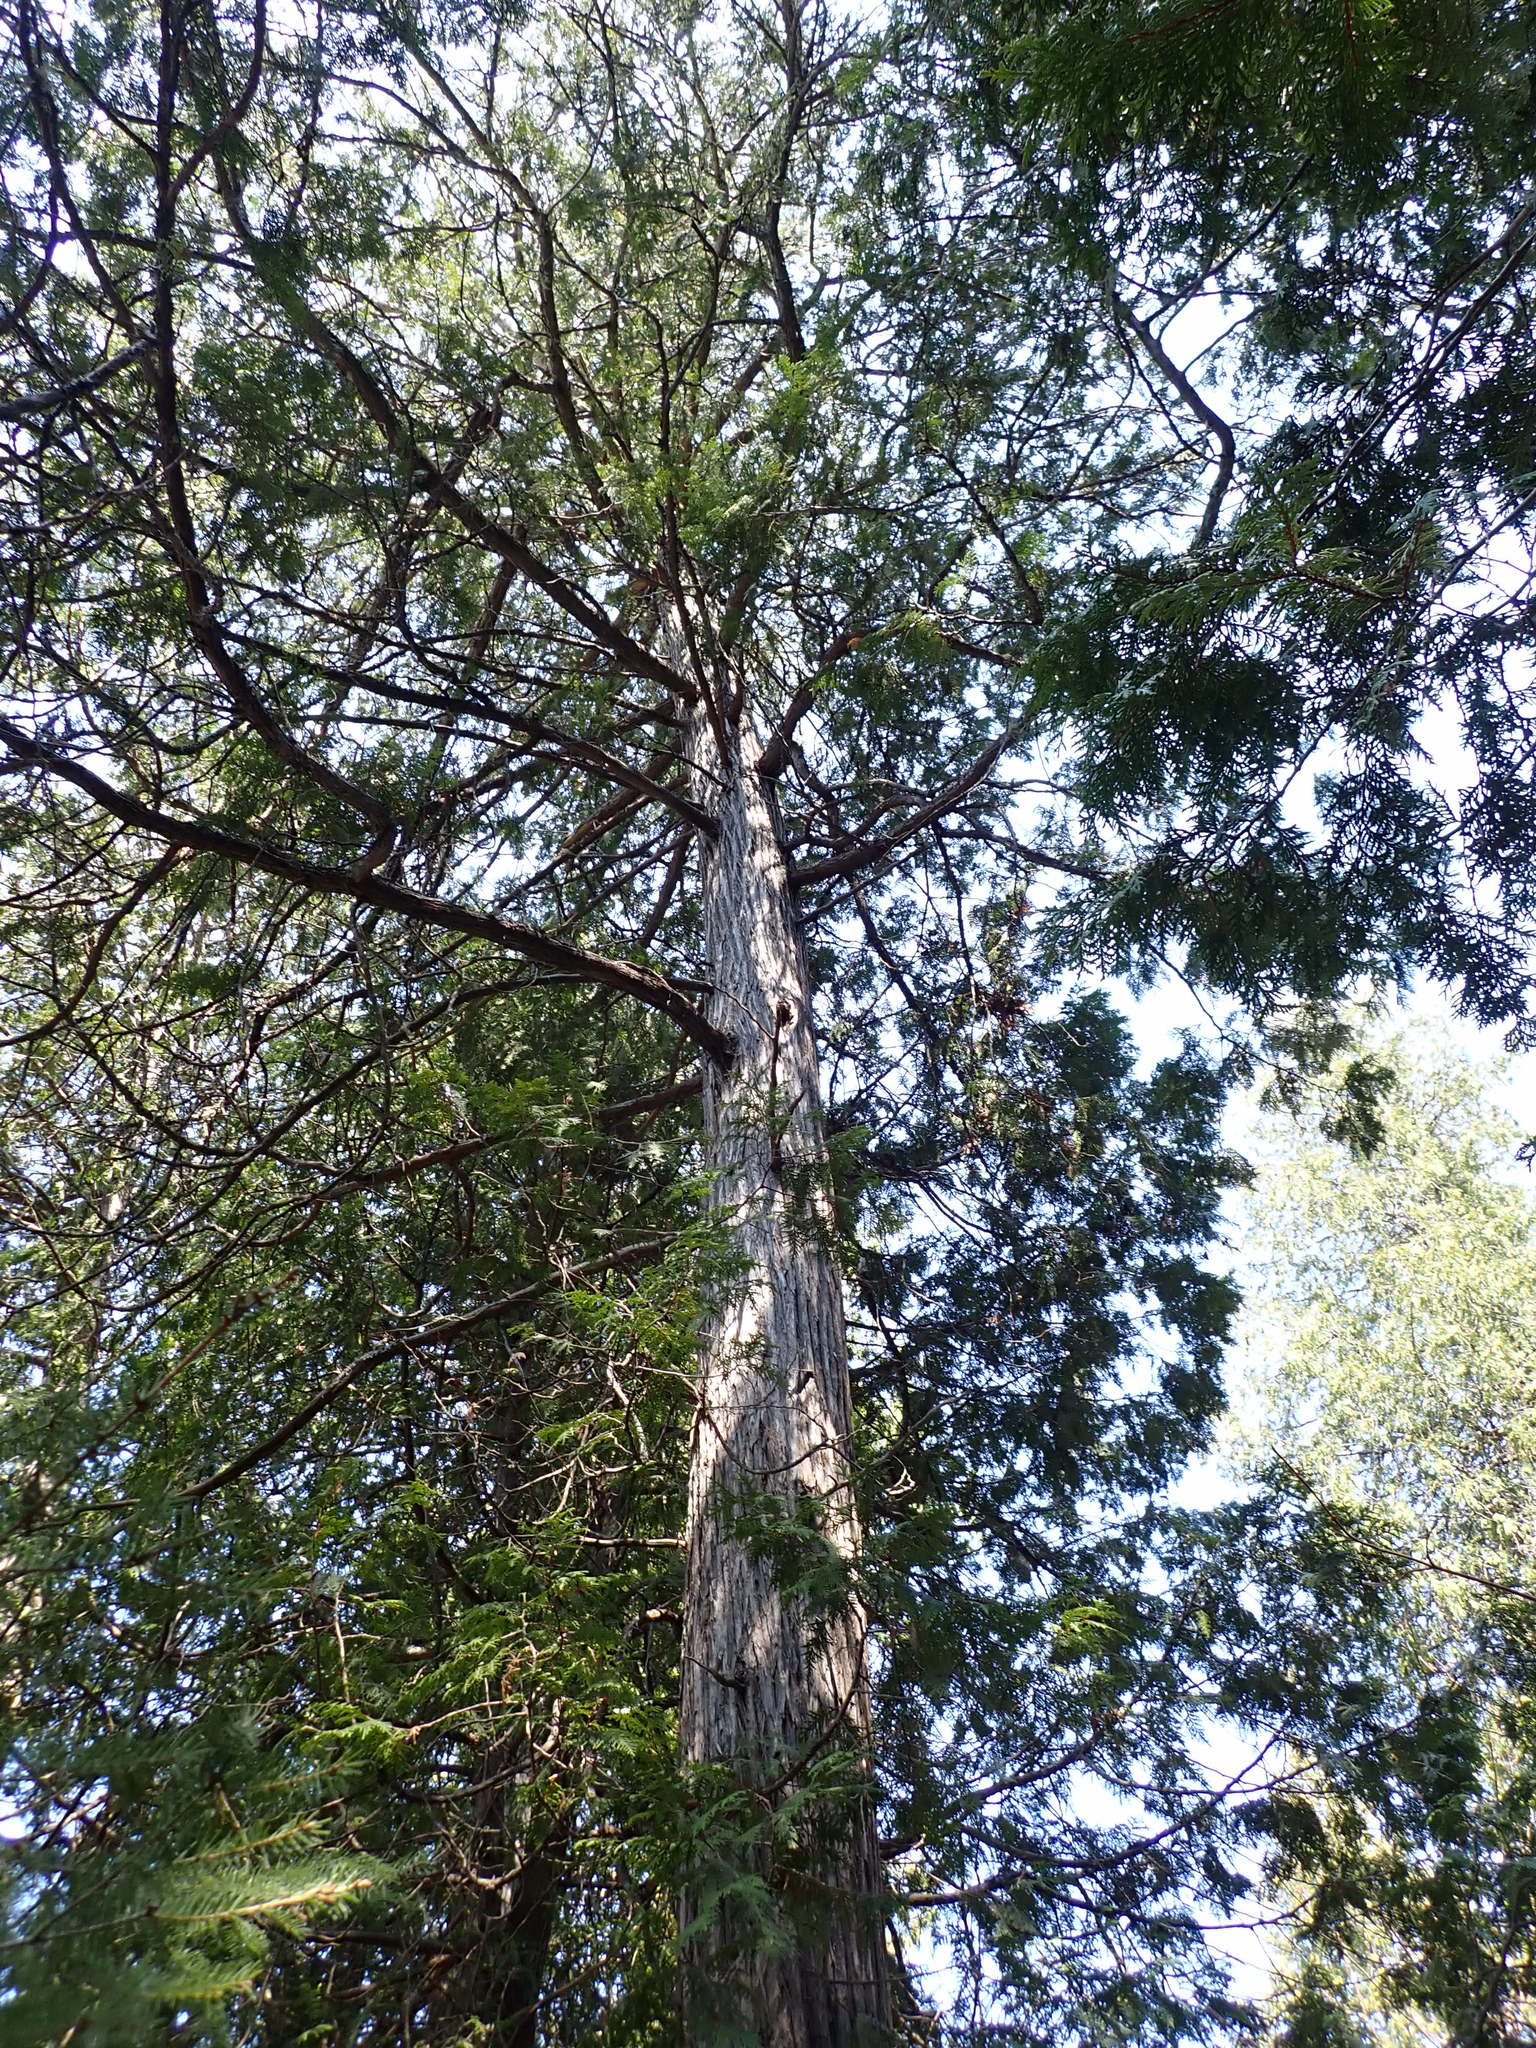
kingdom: Plantae
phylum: Tracheophyta
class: Pinopsida
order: Pinales
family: Cupressaceae
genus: Thuja
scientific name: Thuja occidentalis
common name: Northern white-cedar
